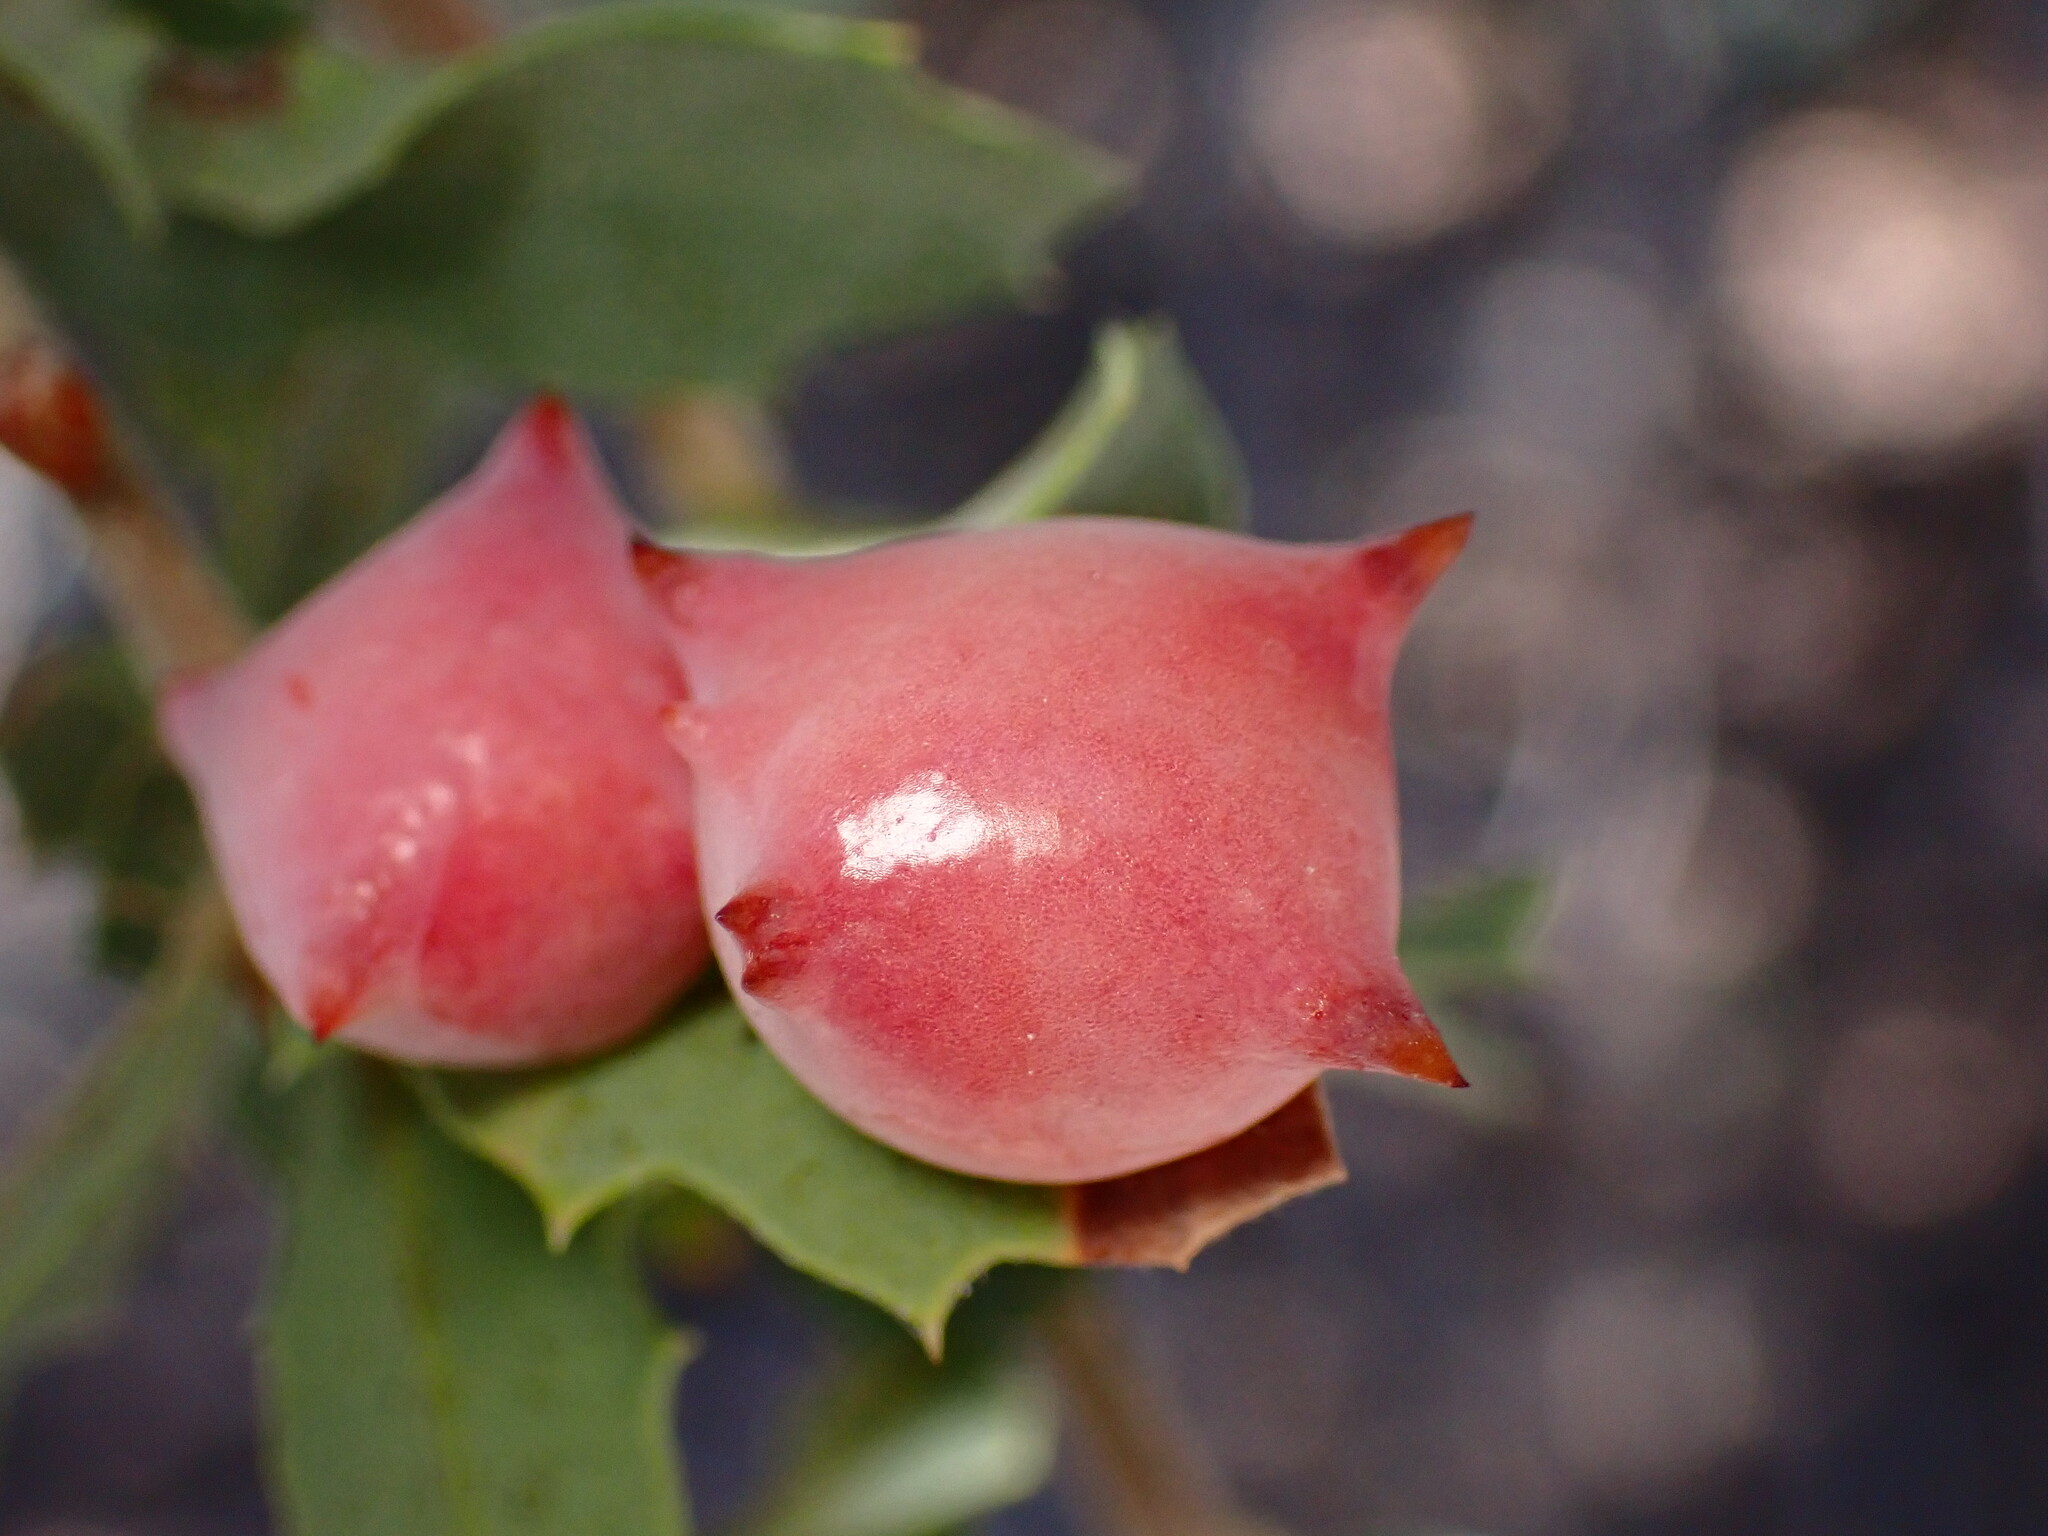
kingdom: Animalia
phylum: Arthropoda
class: Insecta
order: Hymenoptera
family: Cynipidae
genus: Cynips
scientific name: Cynips douglasi
